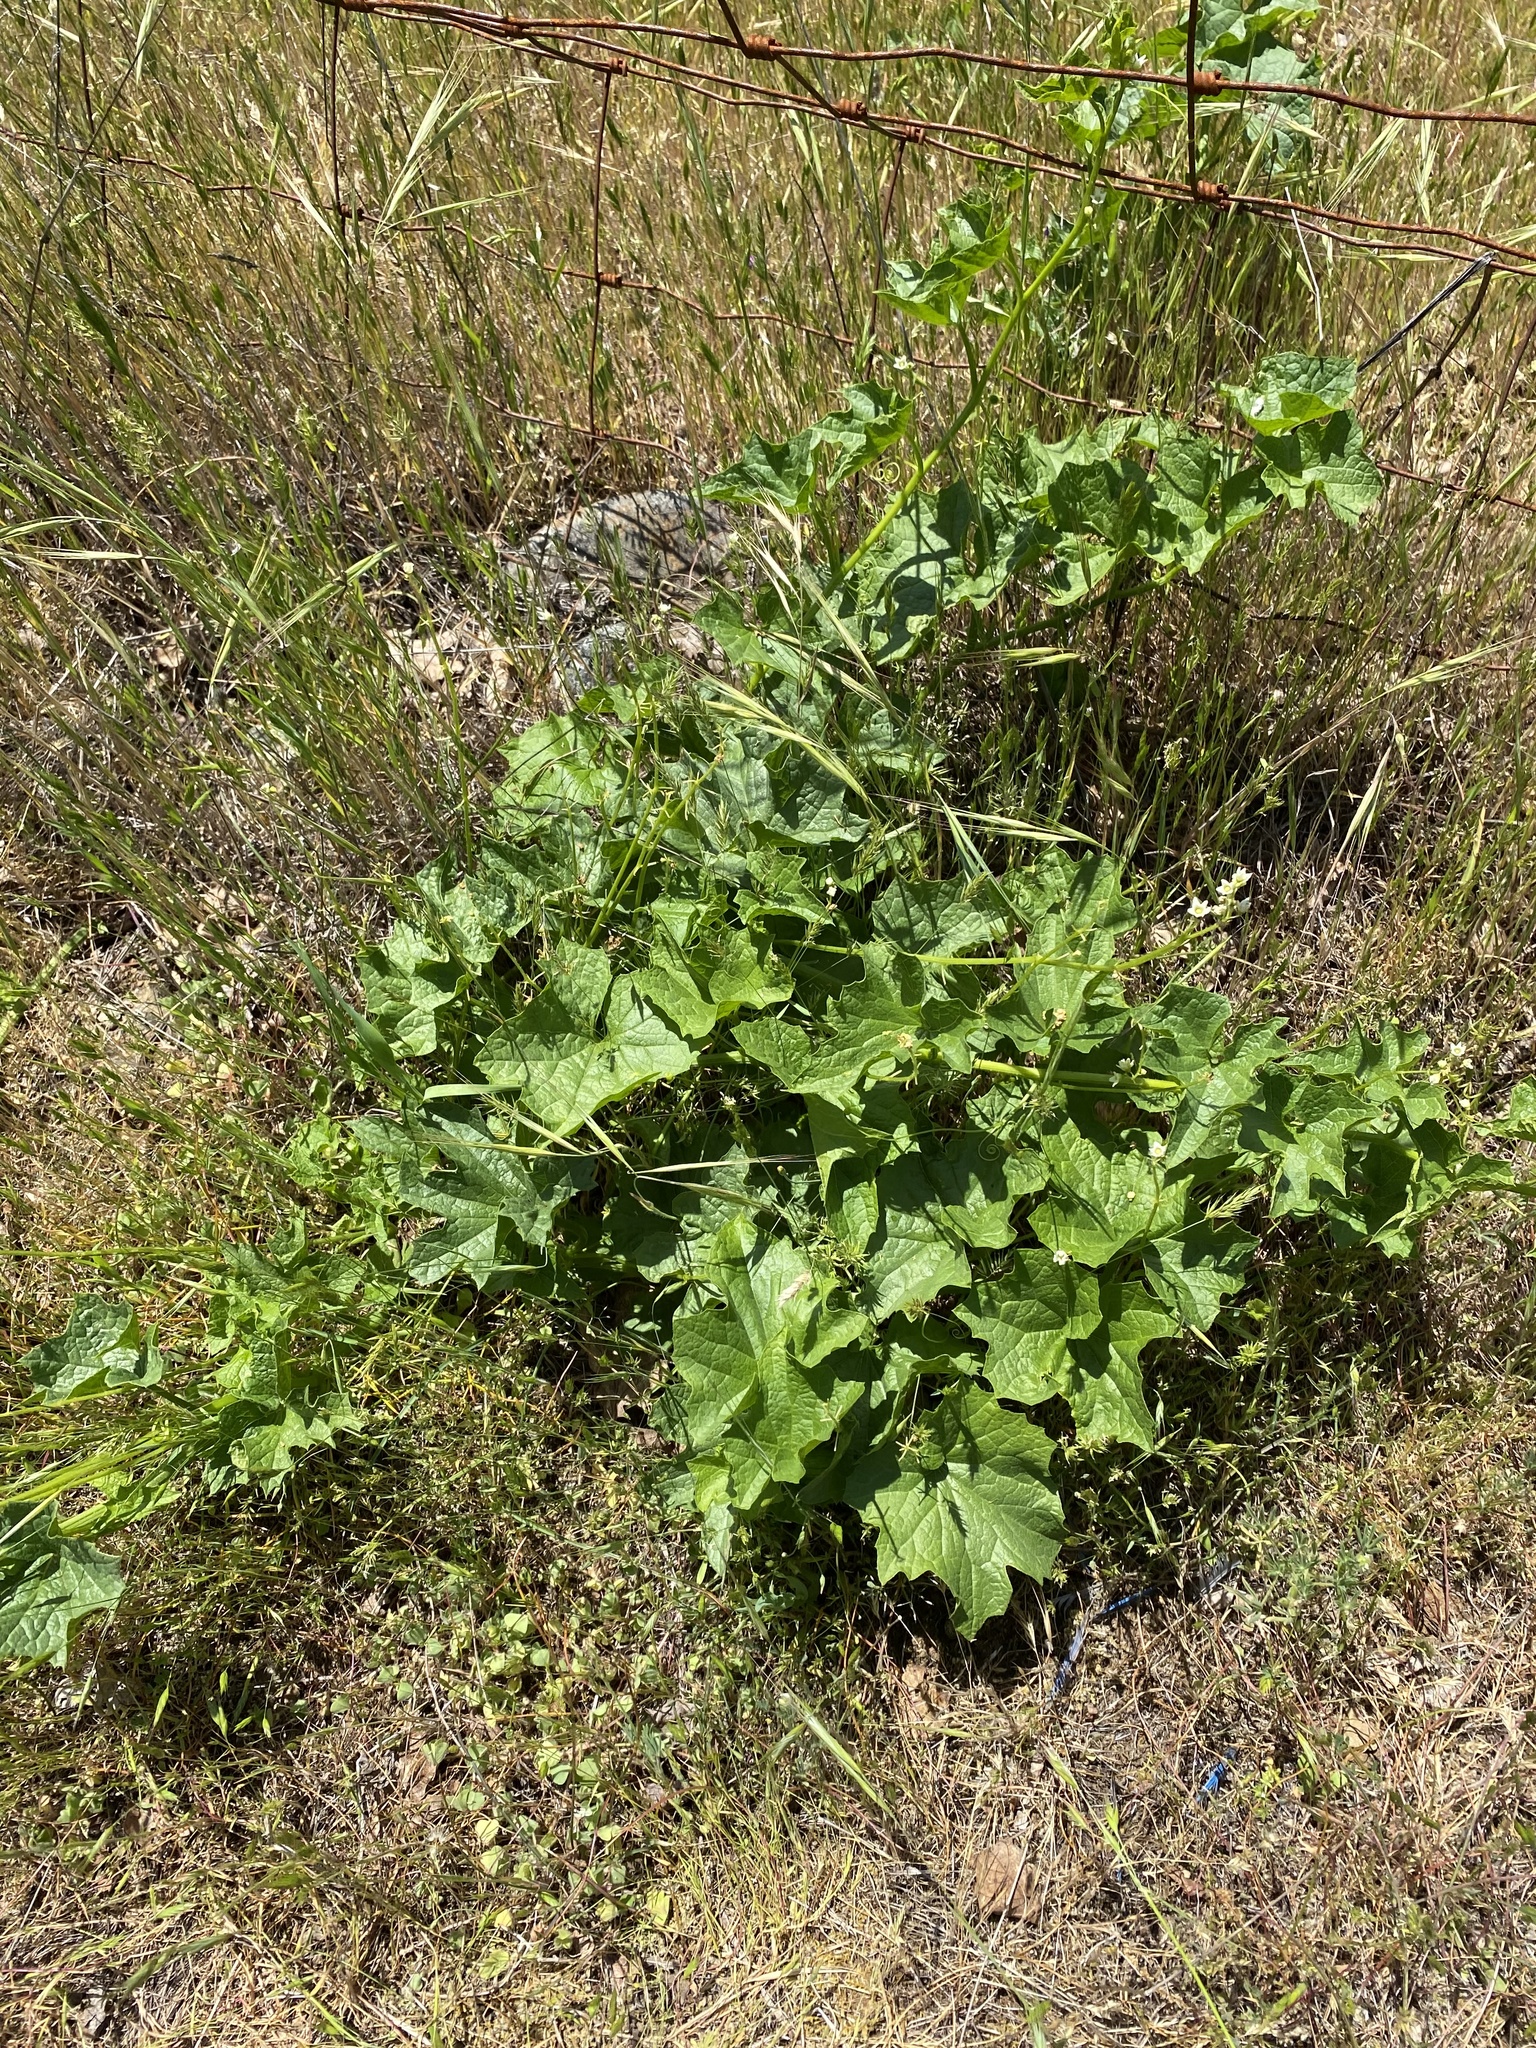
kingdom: Plantae
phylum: Tracheophyta
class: Magnoliopsida
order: Cucurbitales
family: Cucurbitaceae
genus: Marah
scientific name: Marah oregana
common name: Coastal manroot
